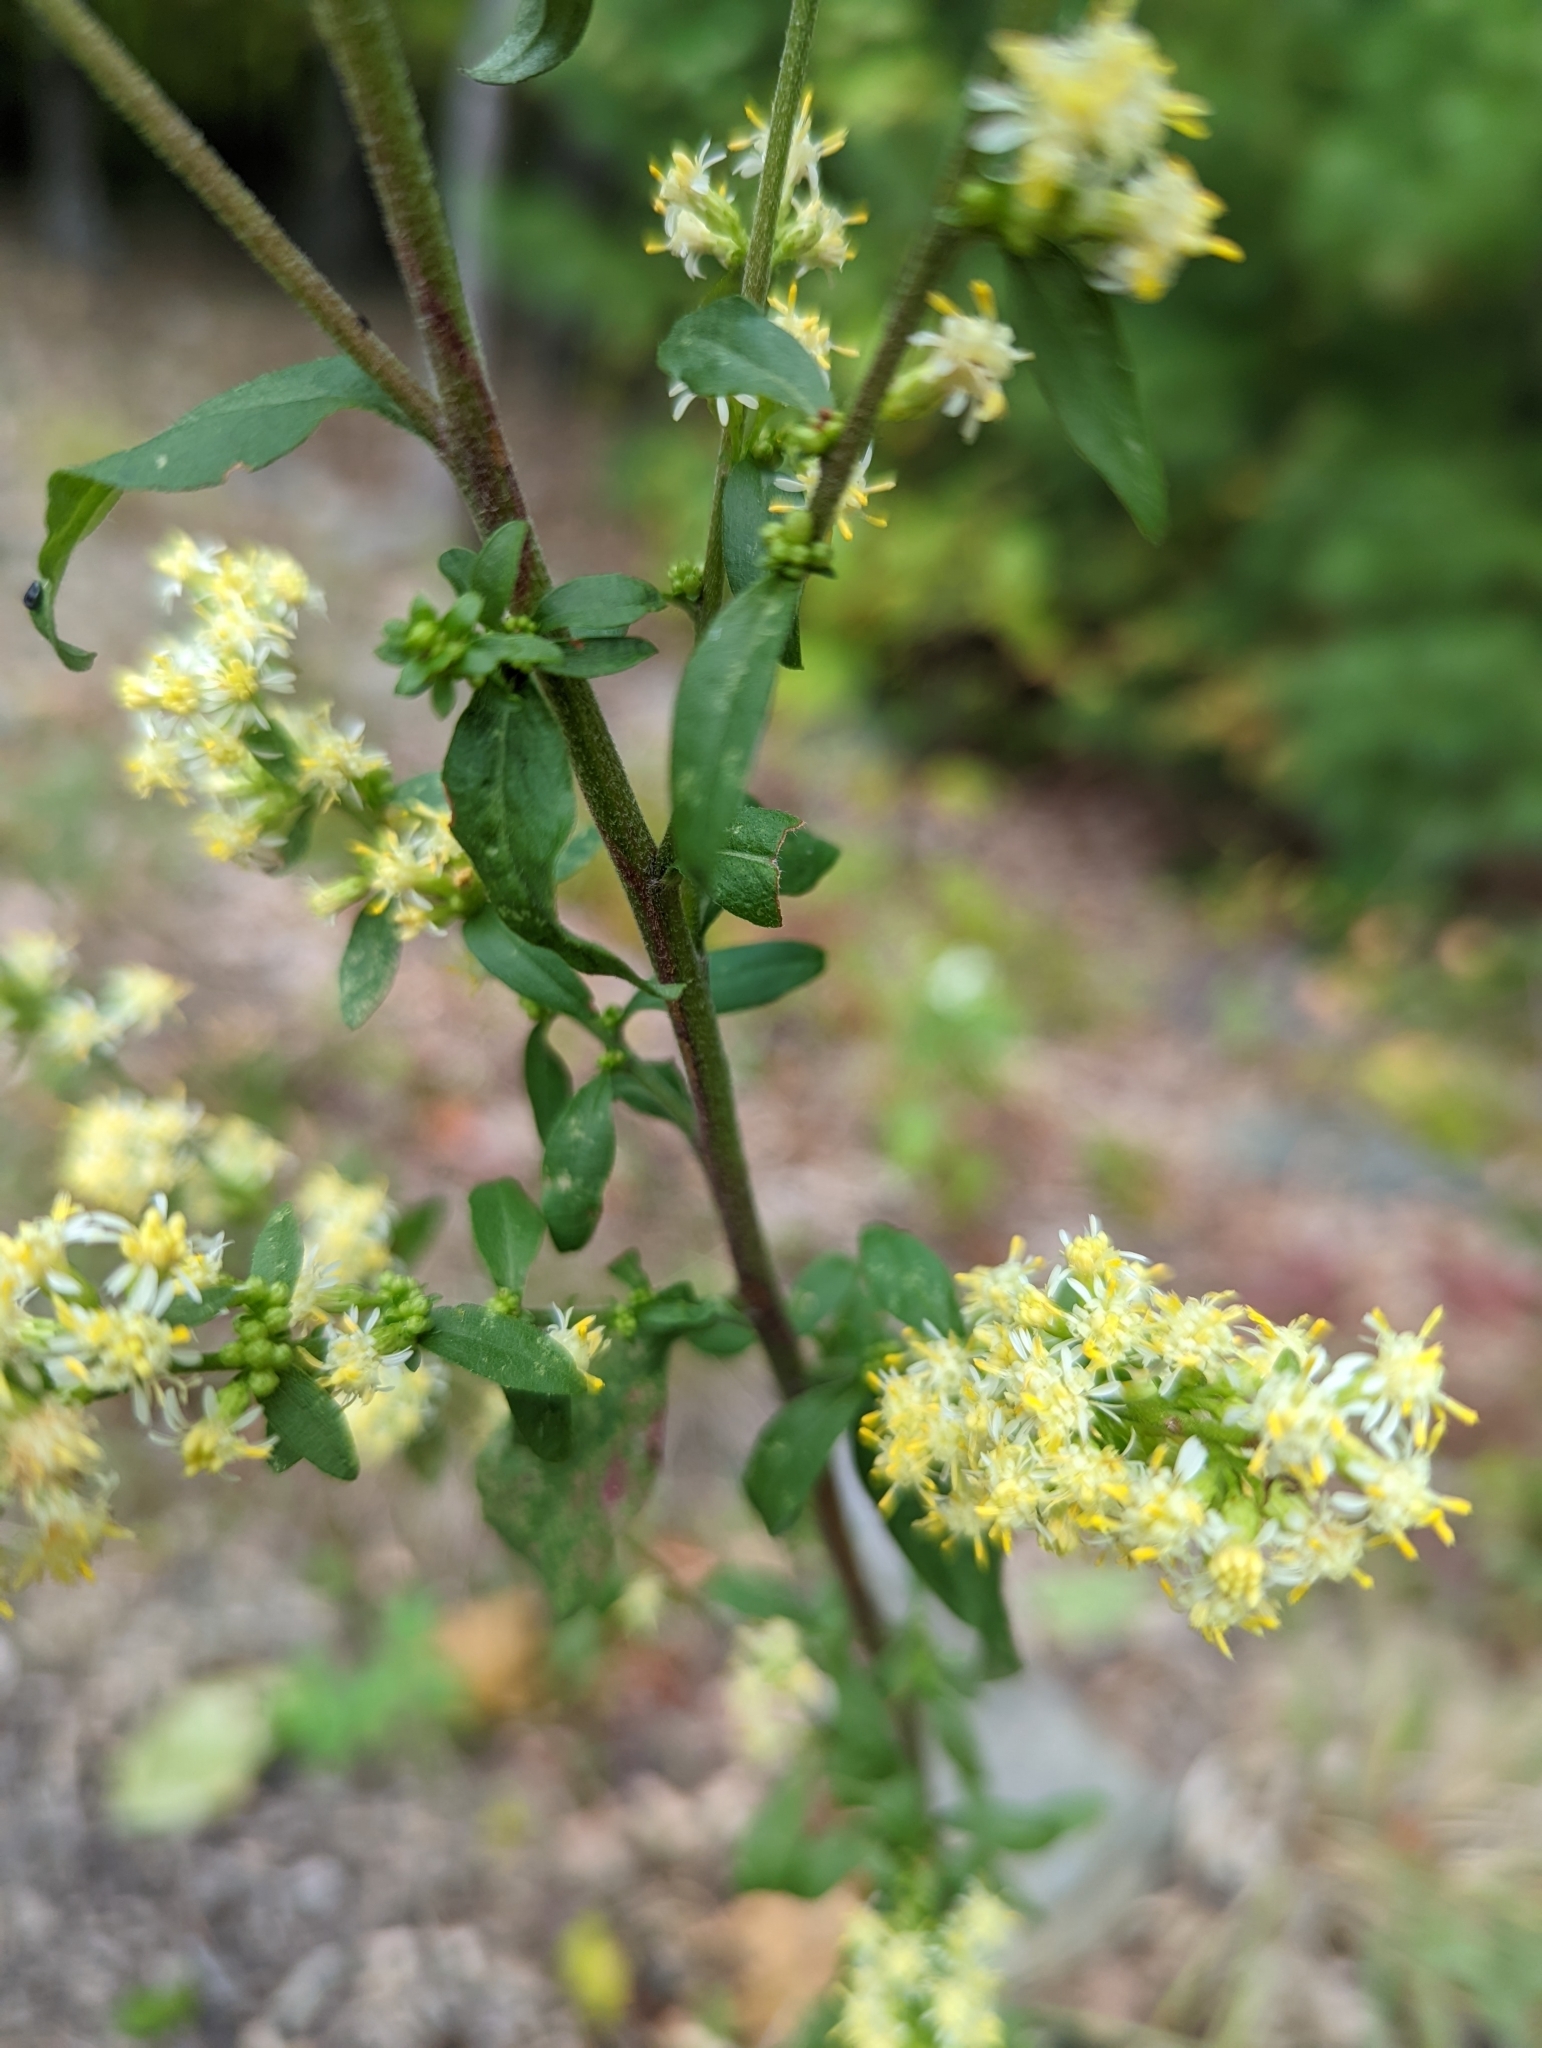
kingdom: Plantae
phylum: Tracheophyta
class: Magnoliopsida
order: Asterales
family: Asteraceae
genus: Solidago
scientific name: Solidago bicolor
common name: Silverrod
